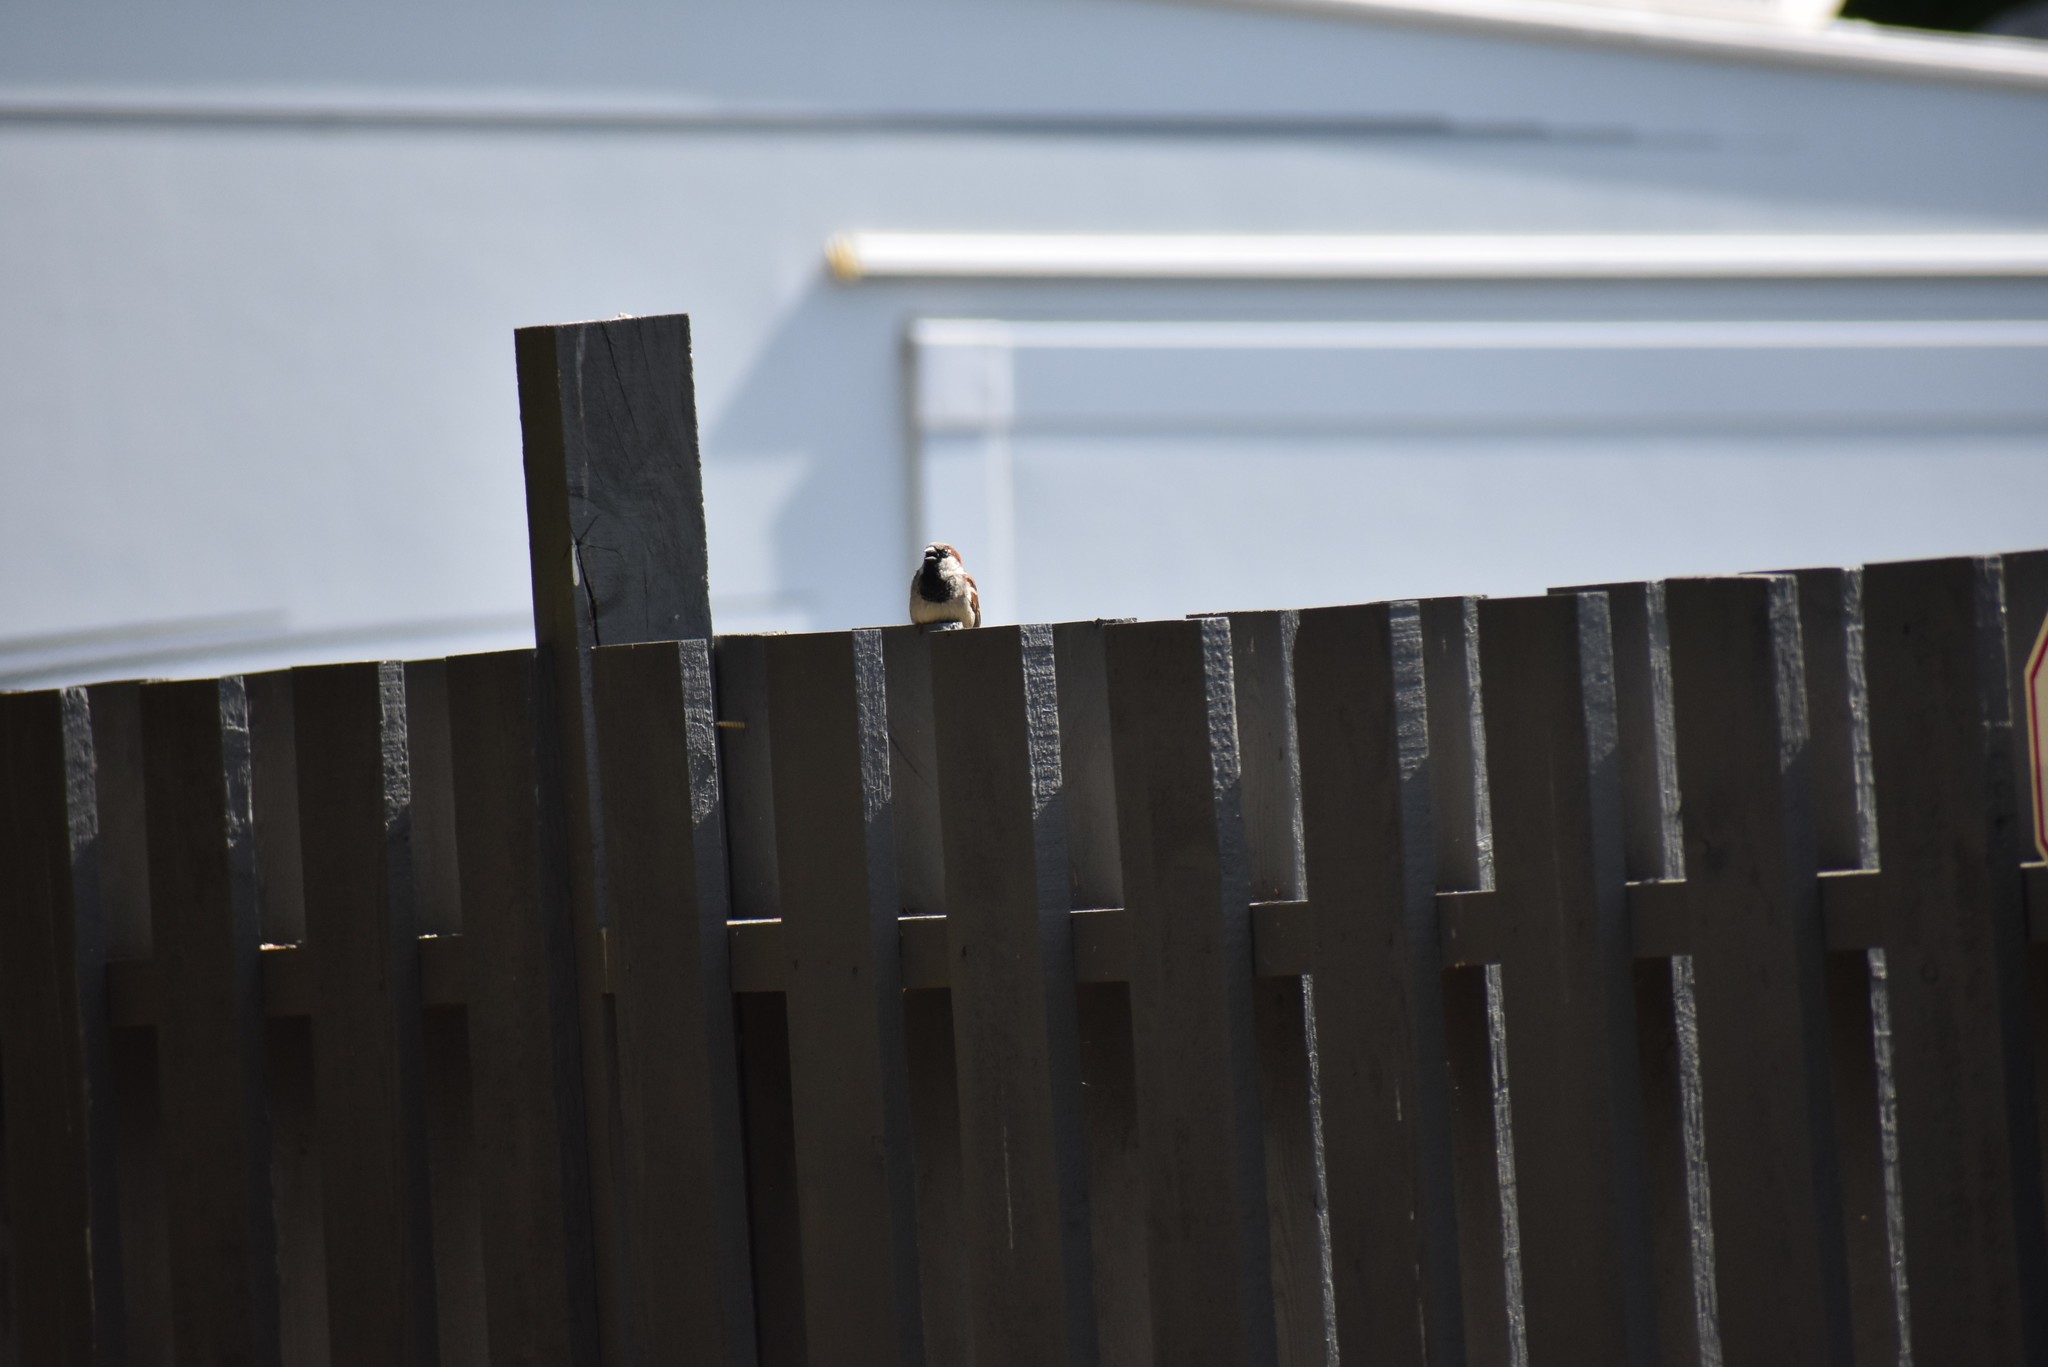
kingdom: Animalia
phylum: Chordata
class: Aves
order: Passeriformes
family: Passeridae
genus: Passer
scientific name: Passer domesticus
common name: House sparrow
